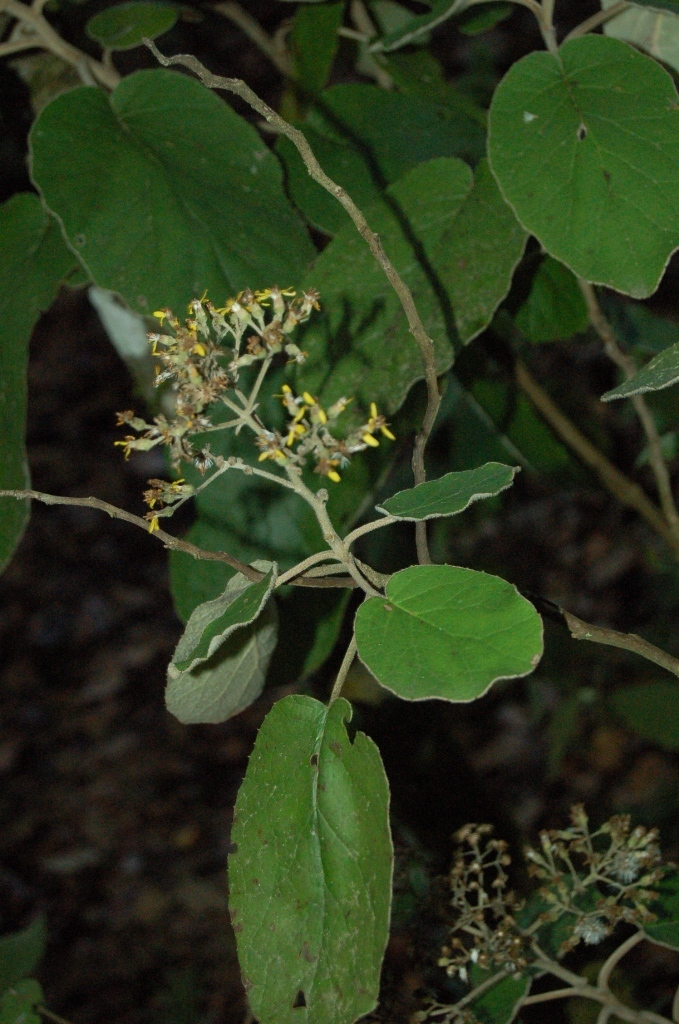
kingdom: Plantae
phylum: Tracheophyta
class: Magnoliopsida
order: Asterales
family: Asteraceae
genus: Roldana
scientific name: Roldana barba-johannis
